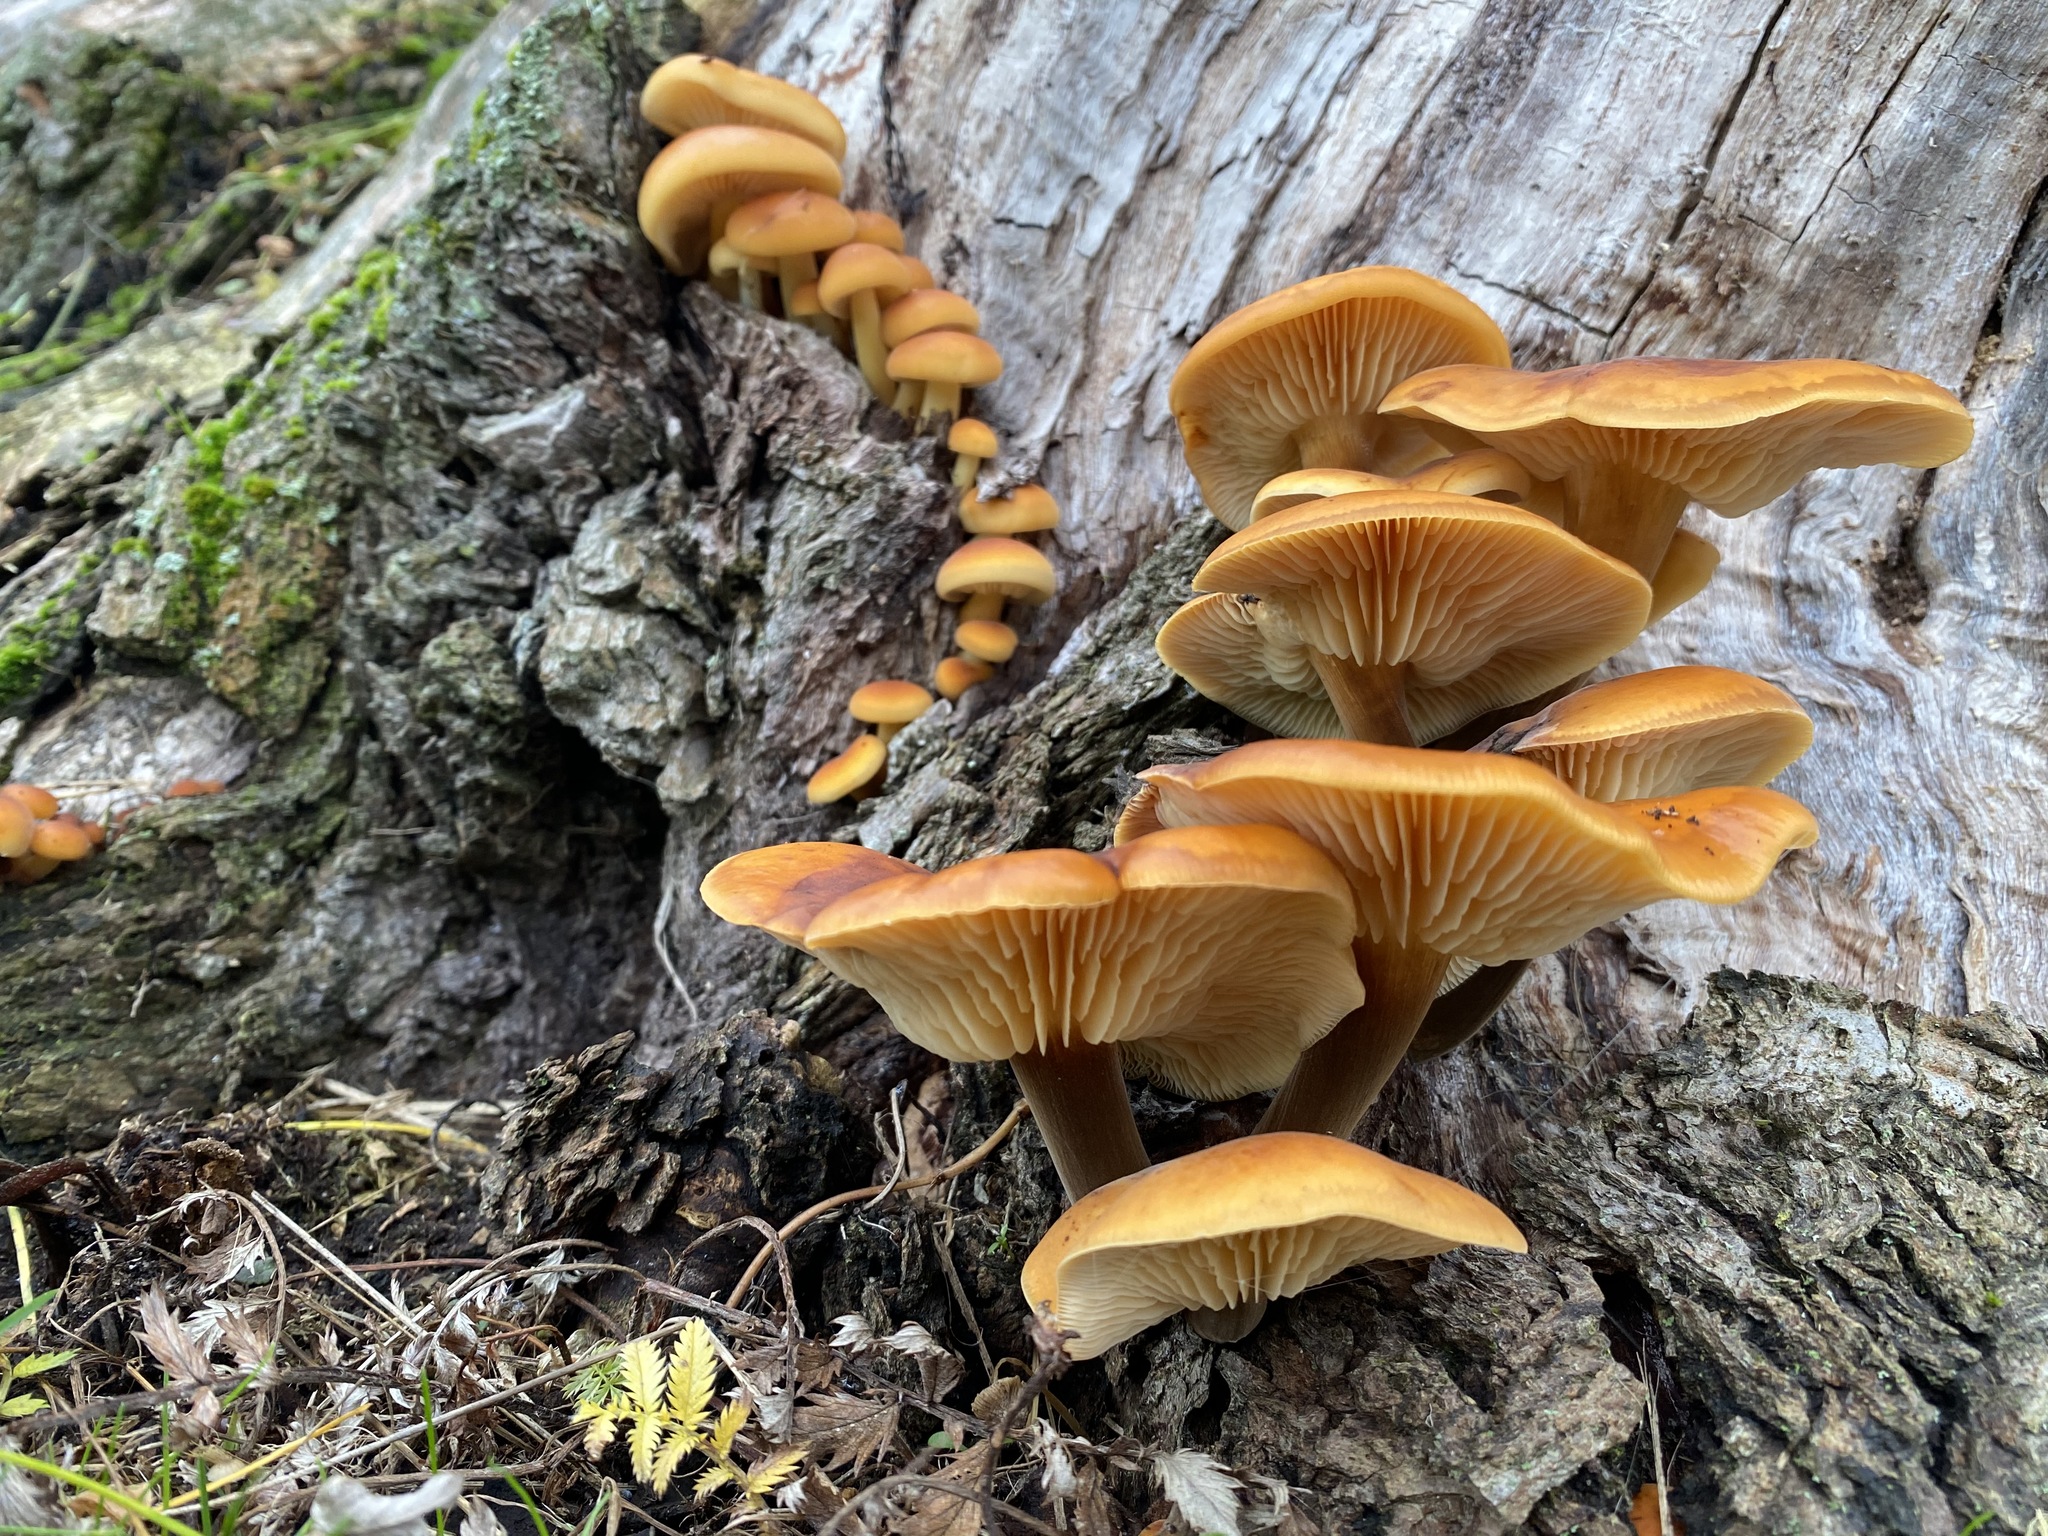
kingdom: Fungi
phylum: Basidiomycota
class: Agaricomycetes
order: Agaricales
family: Physalacriaceae
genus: Flammulina
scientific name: Flammulina
